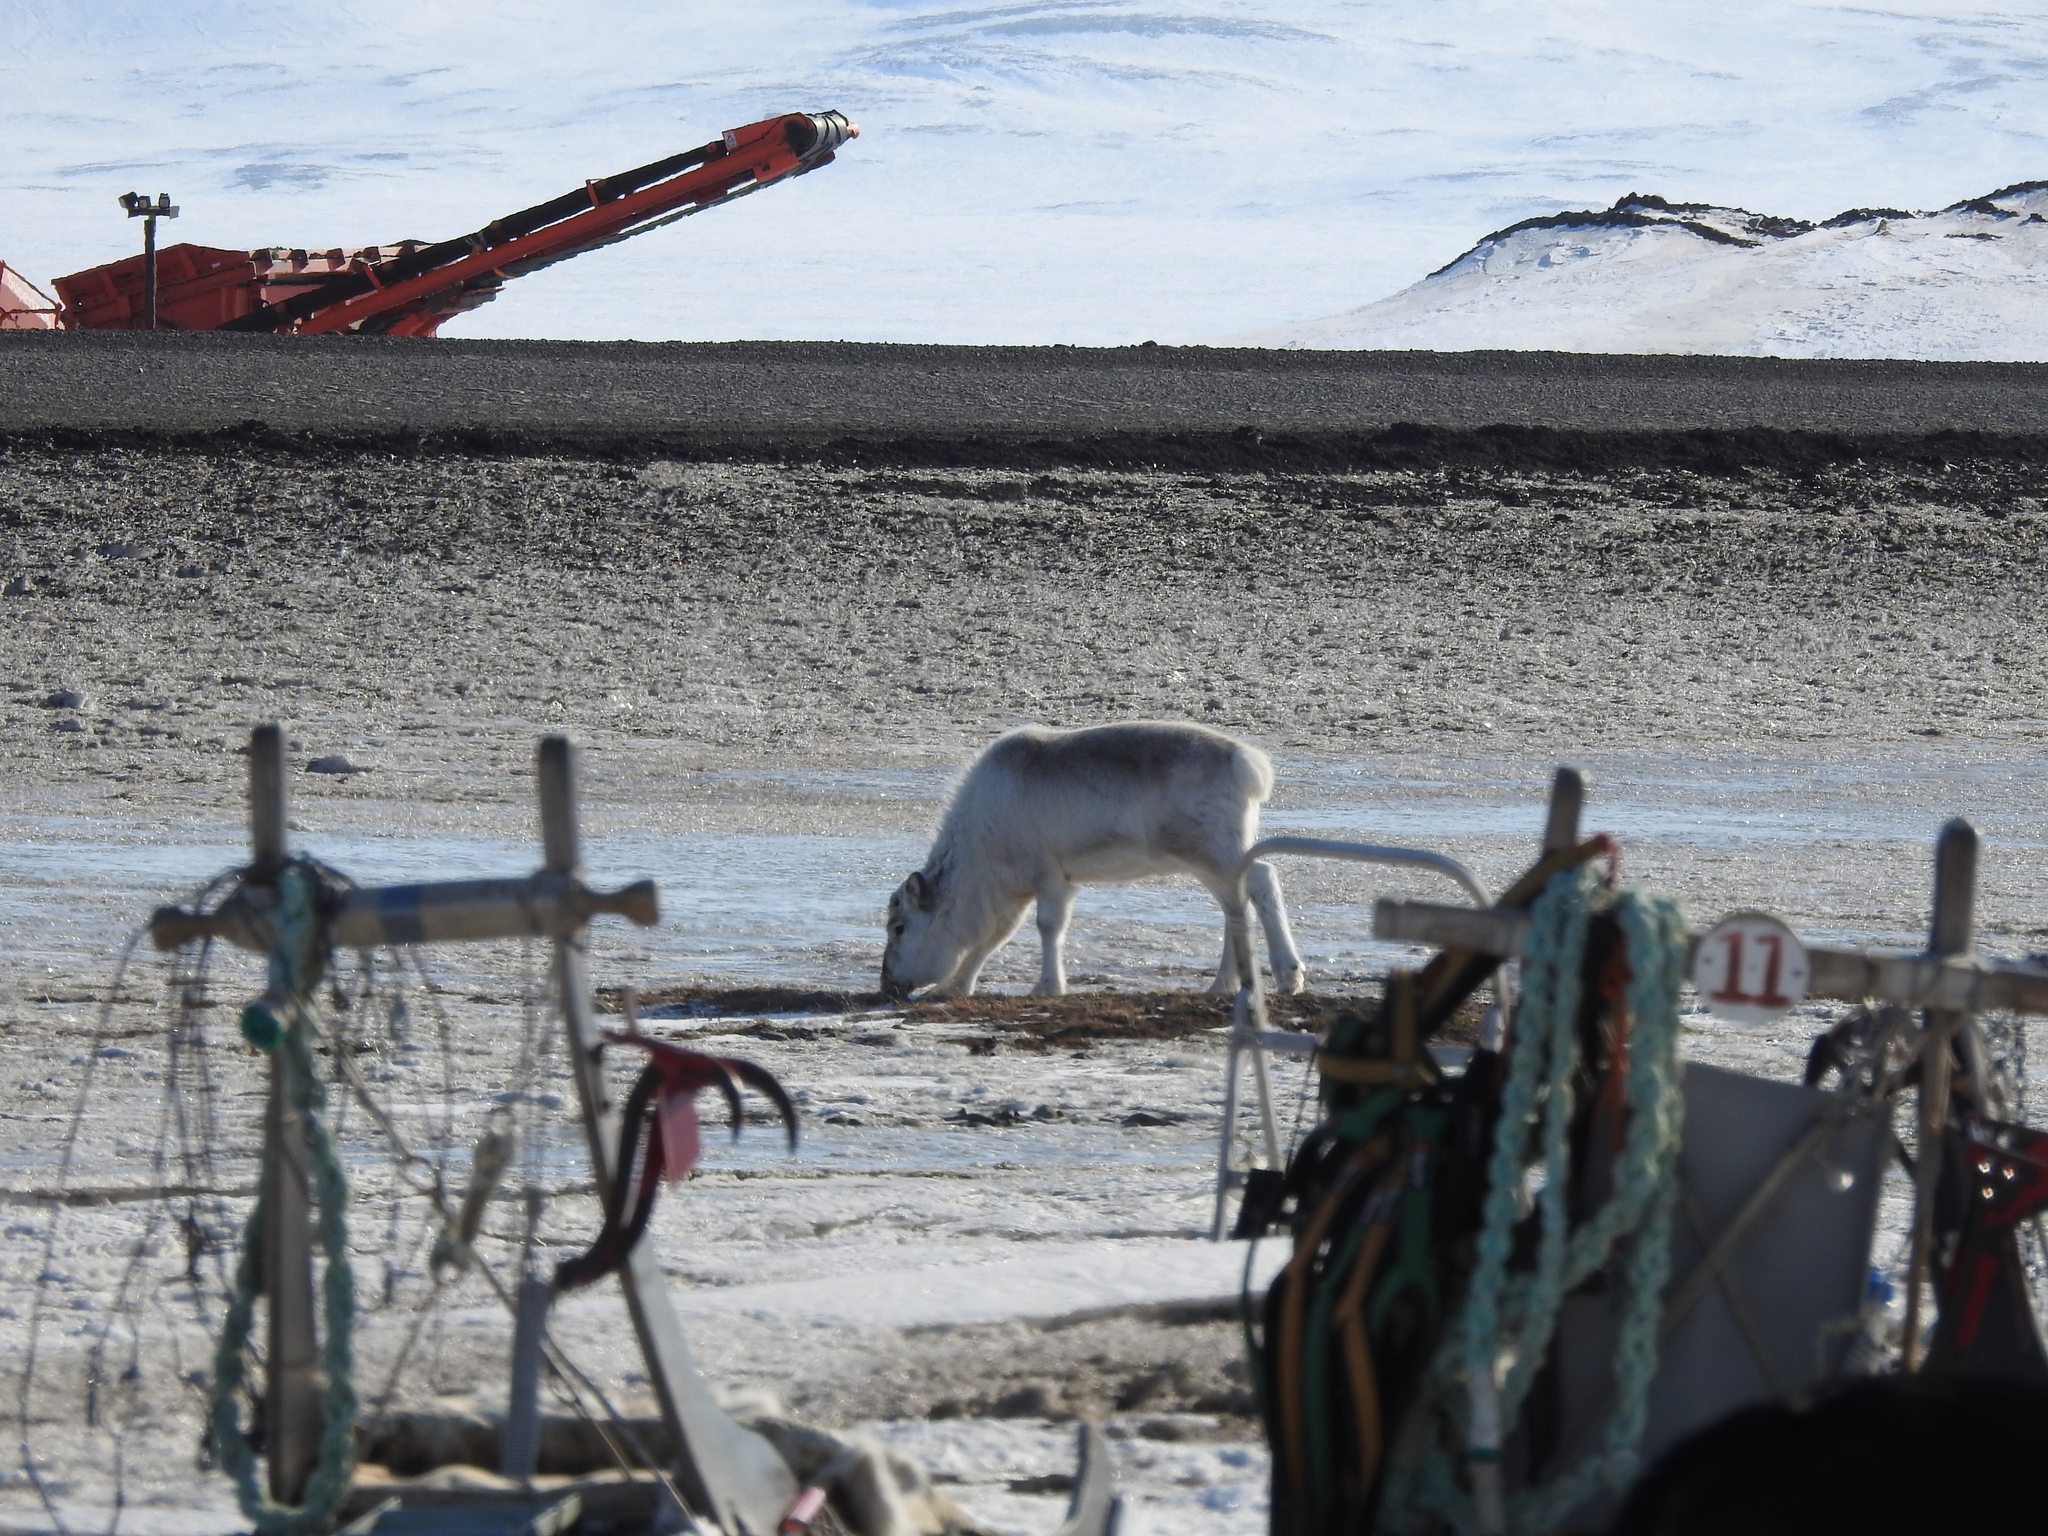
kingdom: Animalia
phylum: Chordata
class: Mammalia
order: Artiodactyla
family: Cervidae
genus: Rangifer
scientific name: Rangifer tarandus
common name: Reindeer
